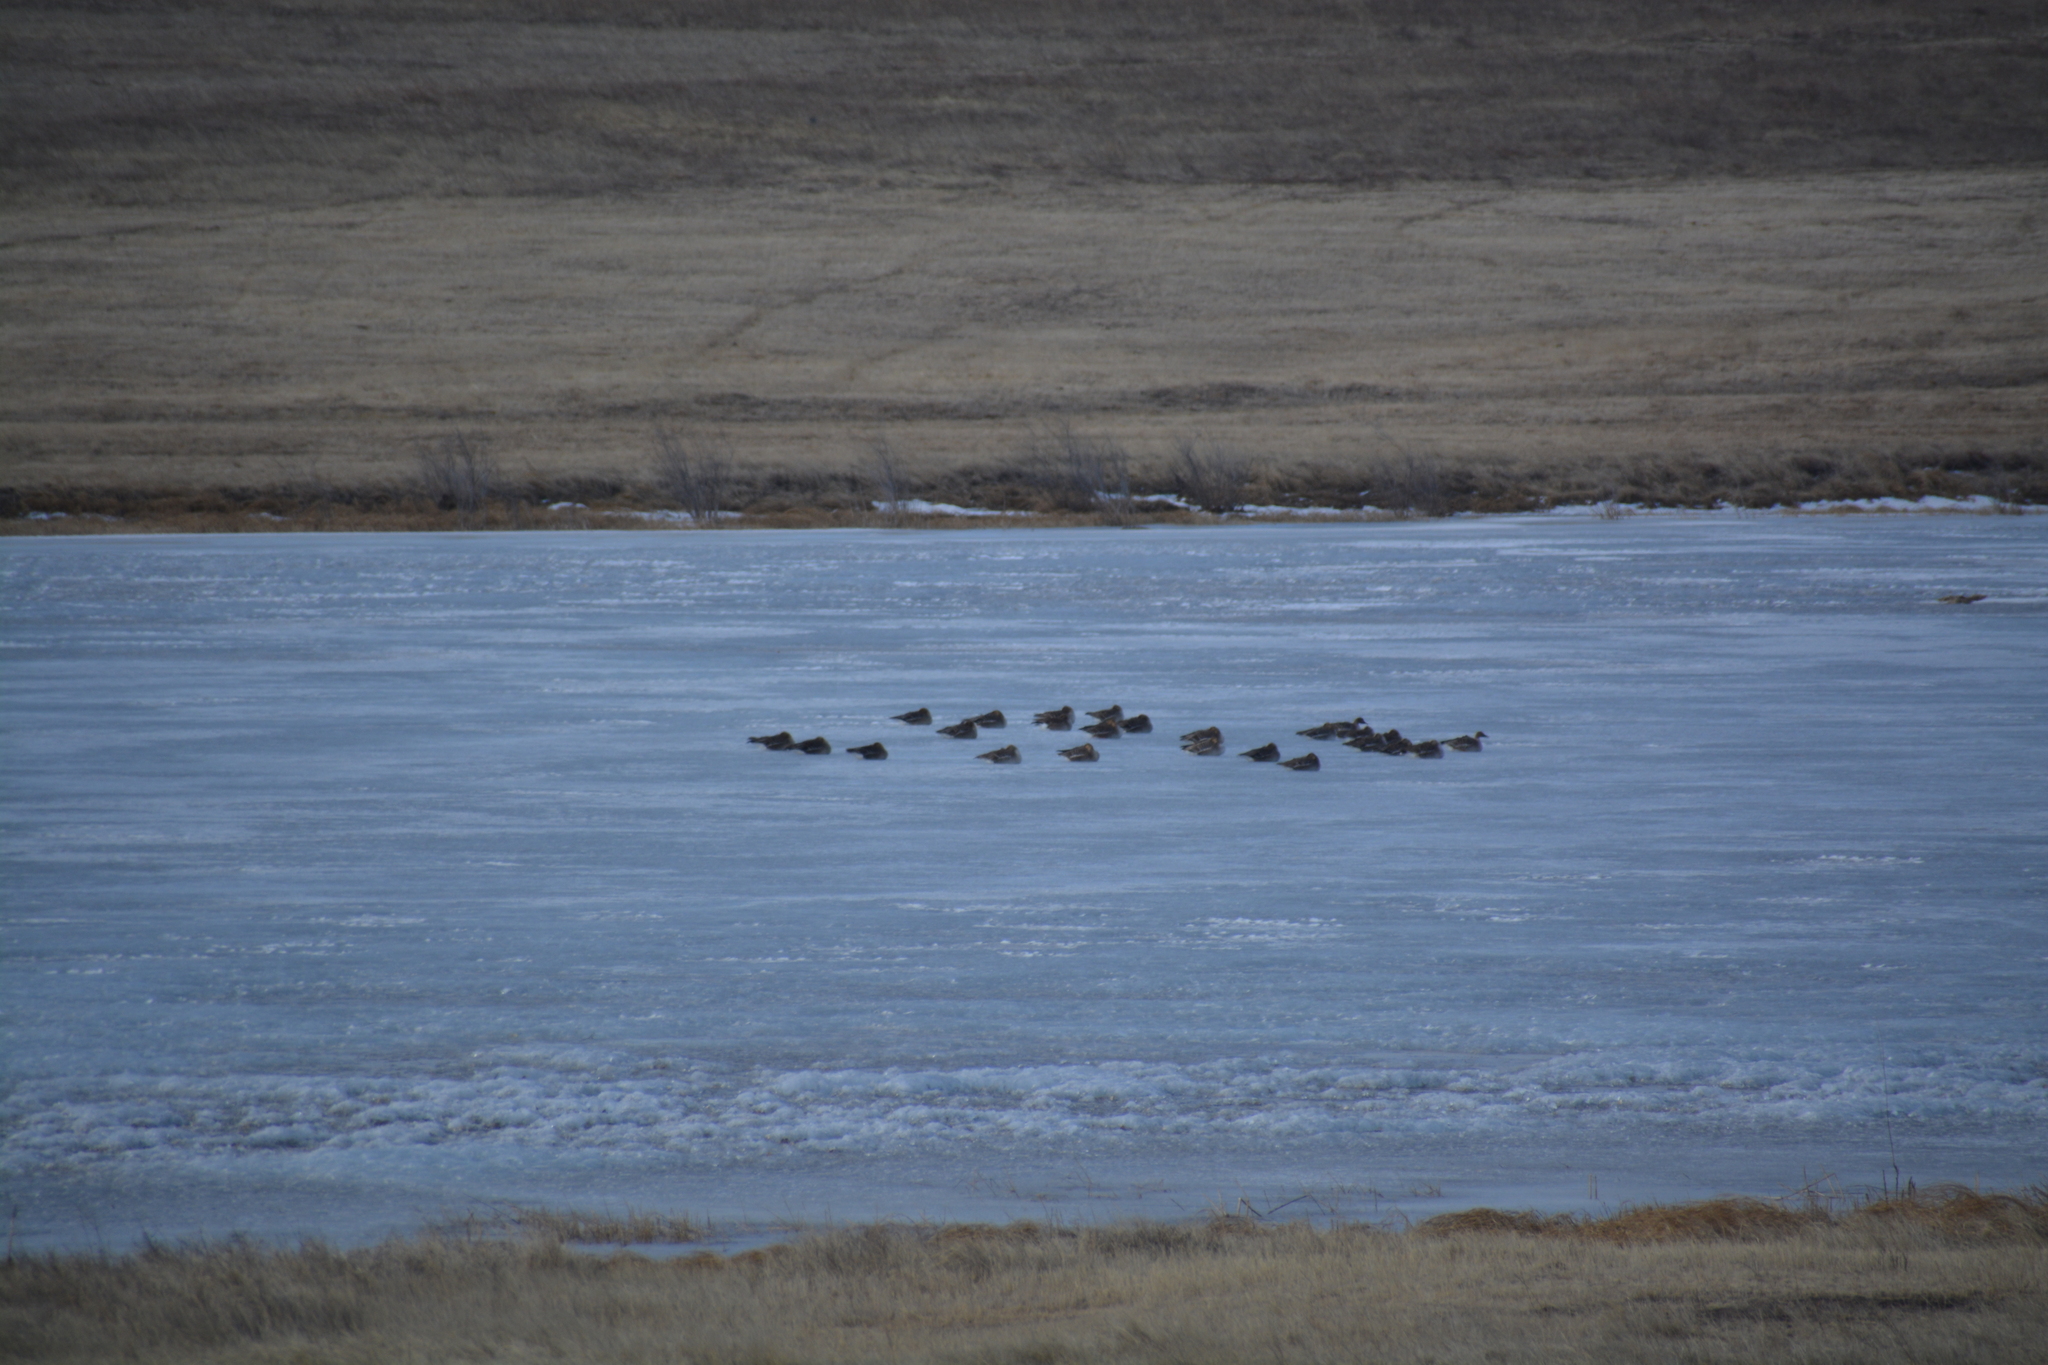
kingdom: Animalia
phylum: Chordata
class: Aves
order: Anseriformes
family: Anatidae
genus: Anser
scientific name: Anser fabalis
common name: Bean goose
